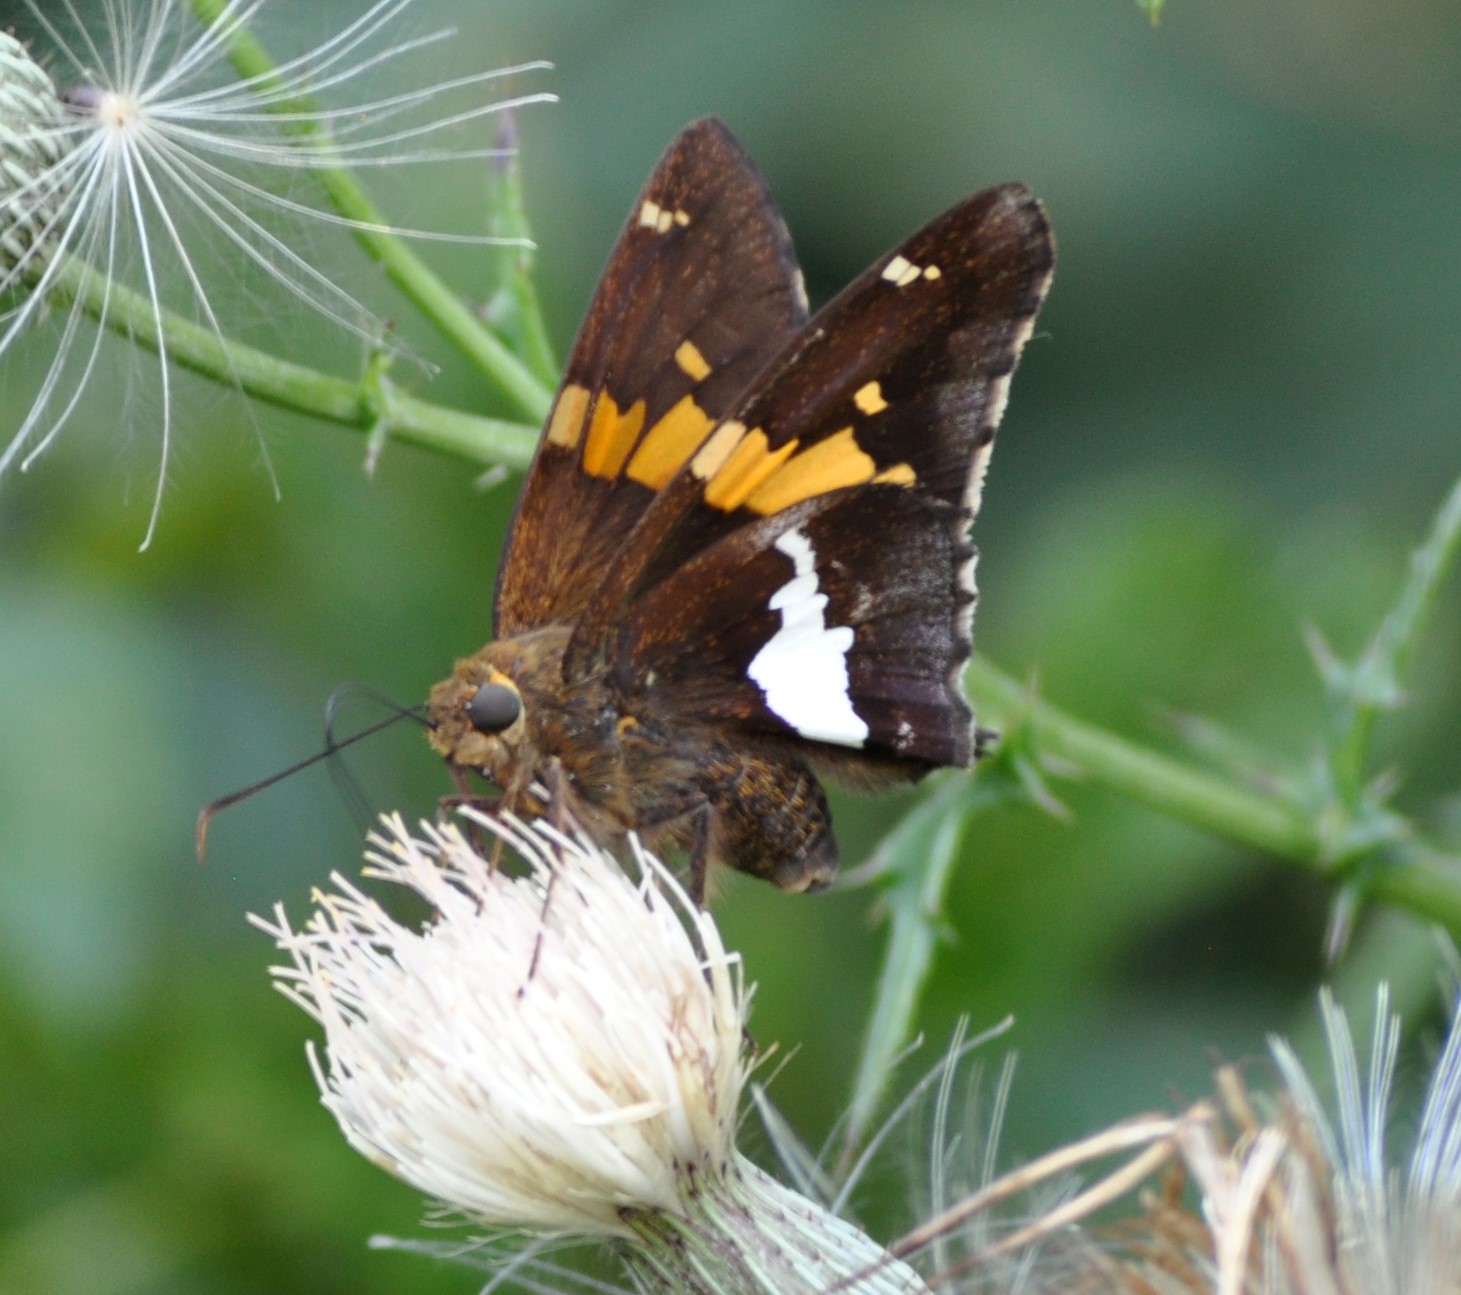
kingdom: Animalia
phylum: Arthropoda
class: Insecta
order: Lepidoptera
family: Hesperiidae
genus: Epargyreus
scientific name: Epargyreus clarus
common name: Silver-spotted skipper
